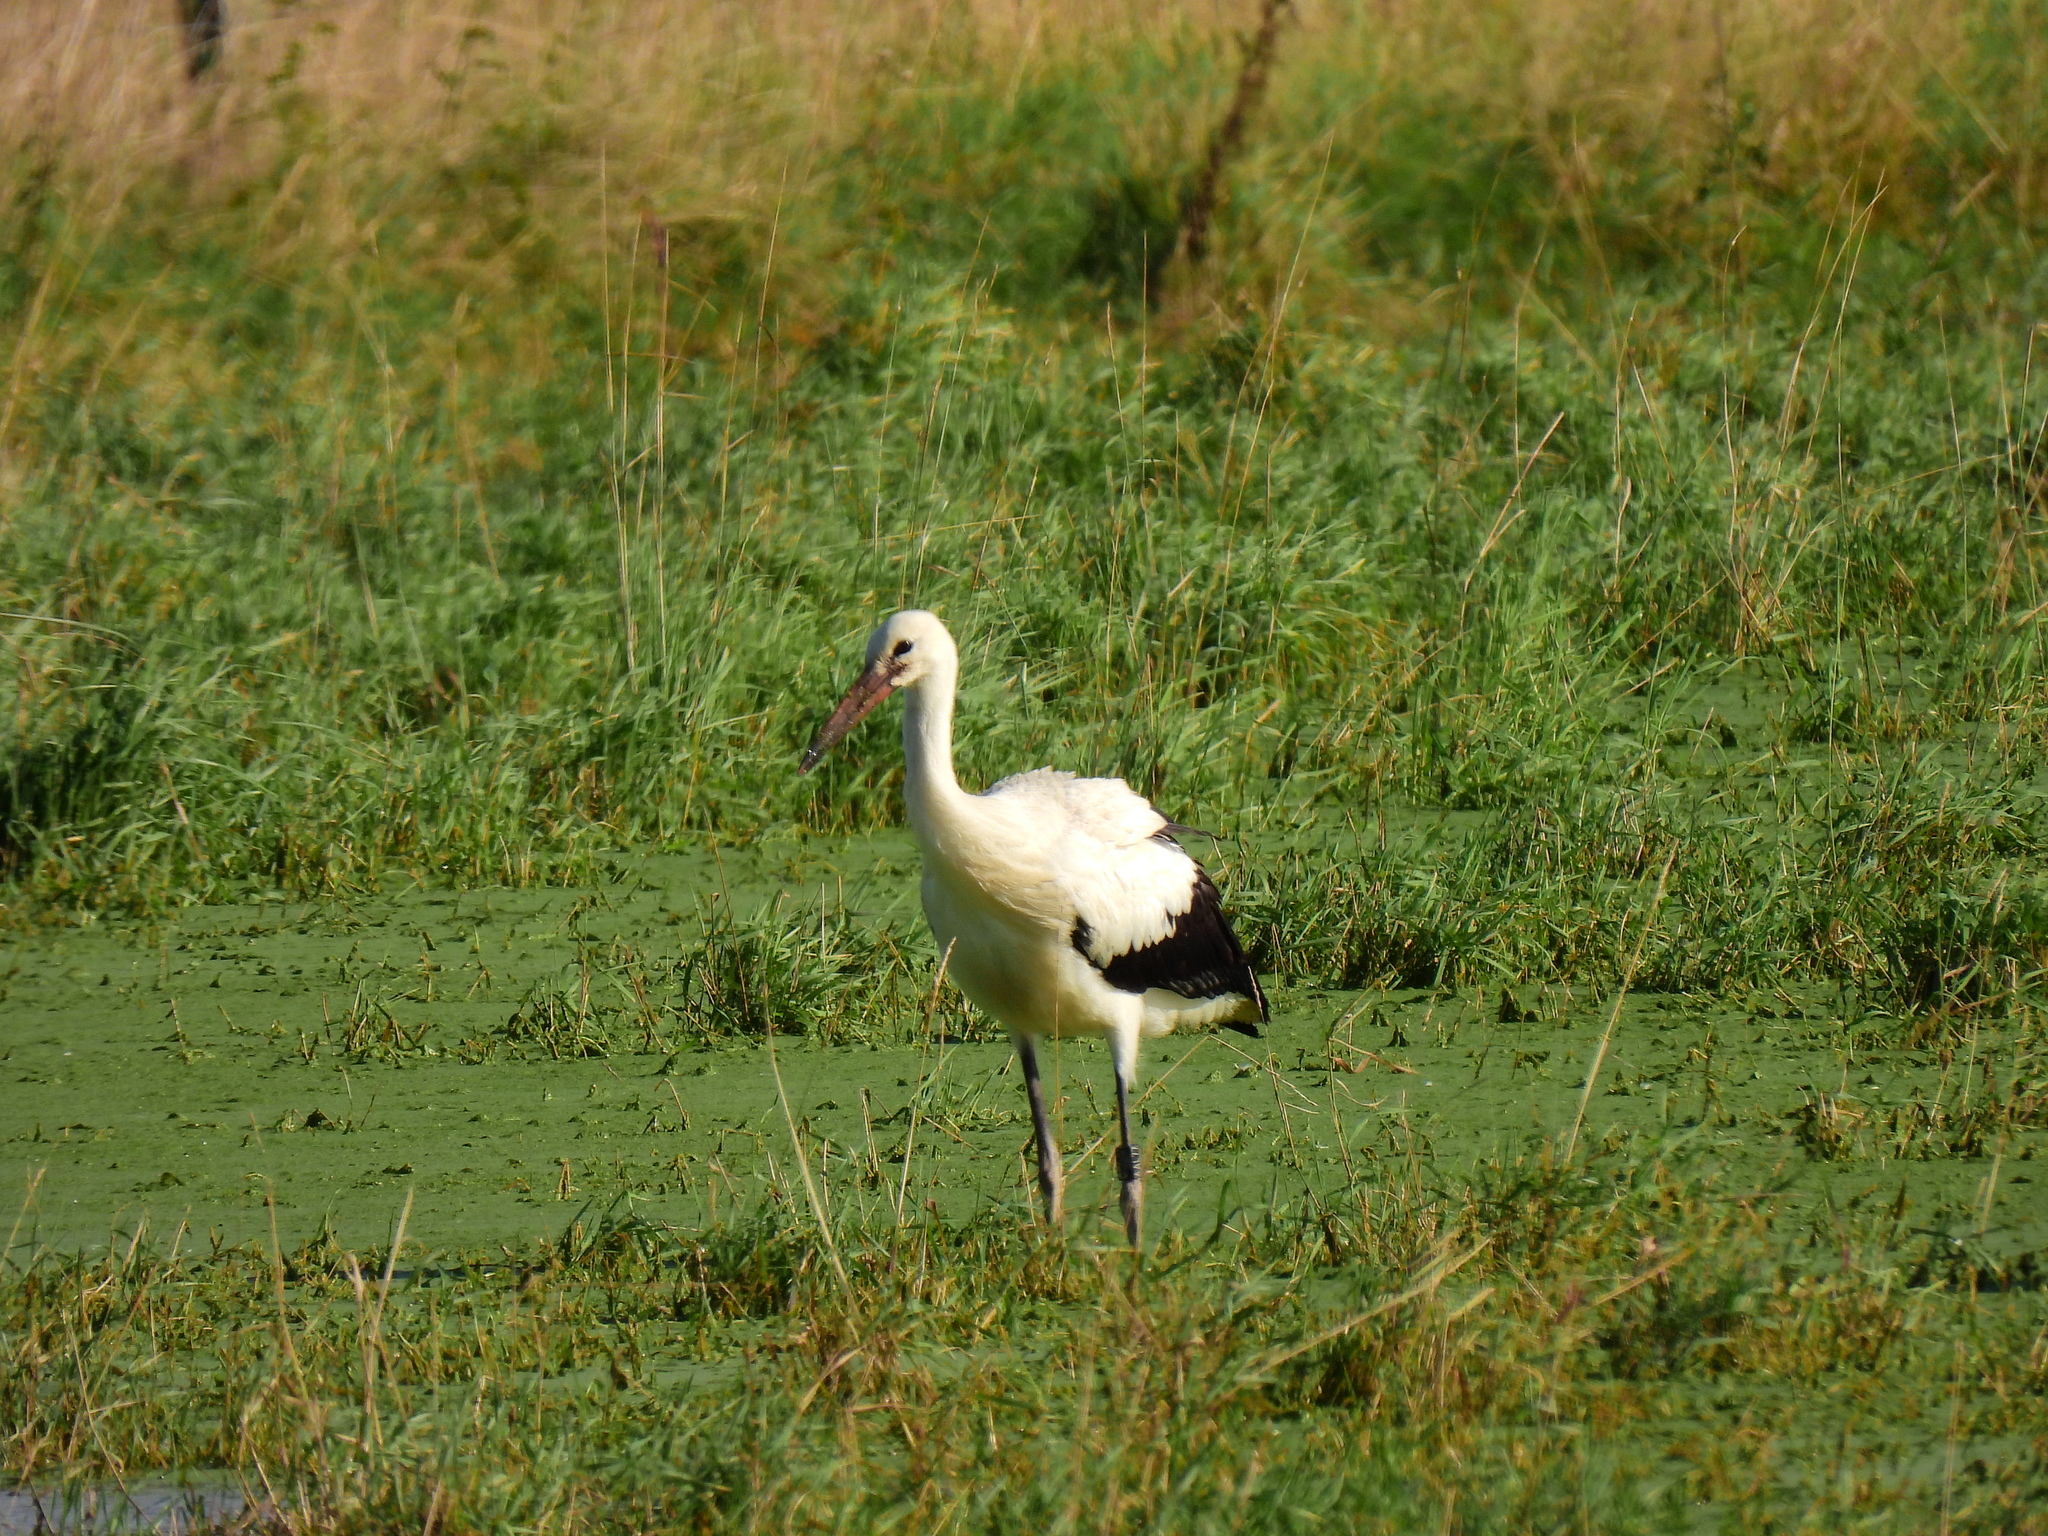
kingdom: Animalia
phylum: Chordata
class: Aves
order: Ciconiiformes
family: Ciconiidae
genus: Ciconia
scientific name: Ciconia ciconia
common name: White stork
